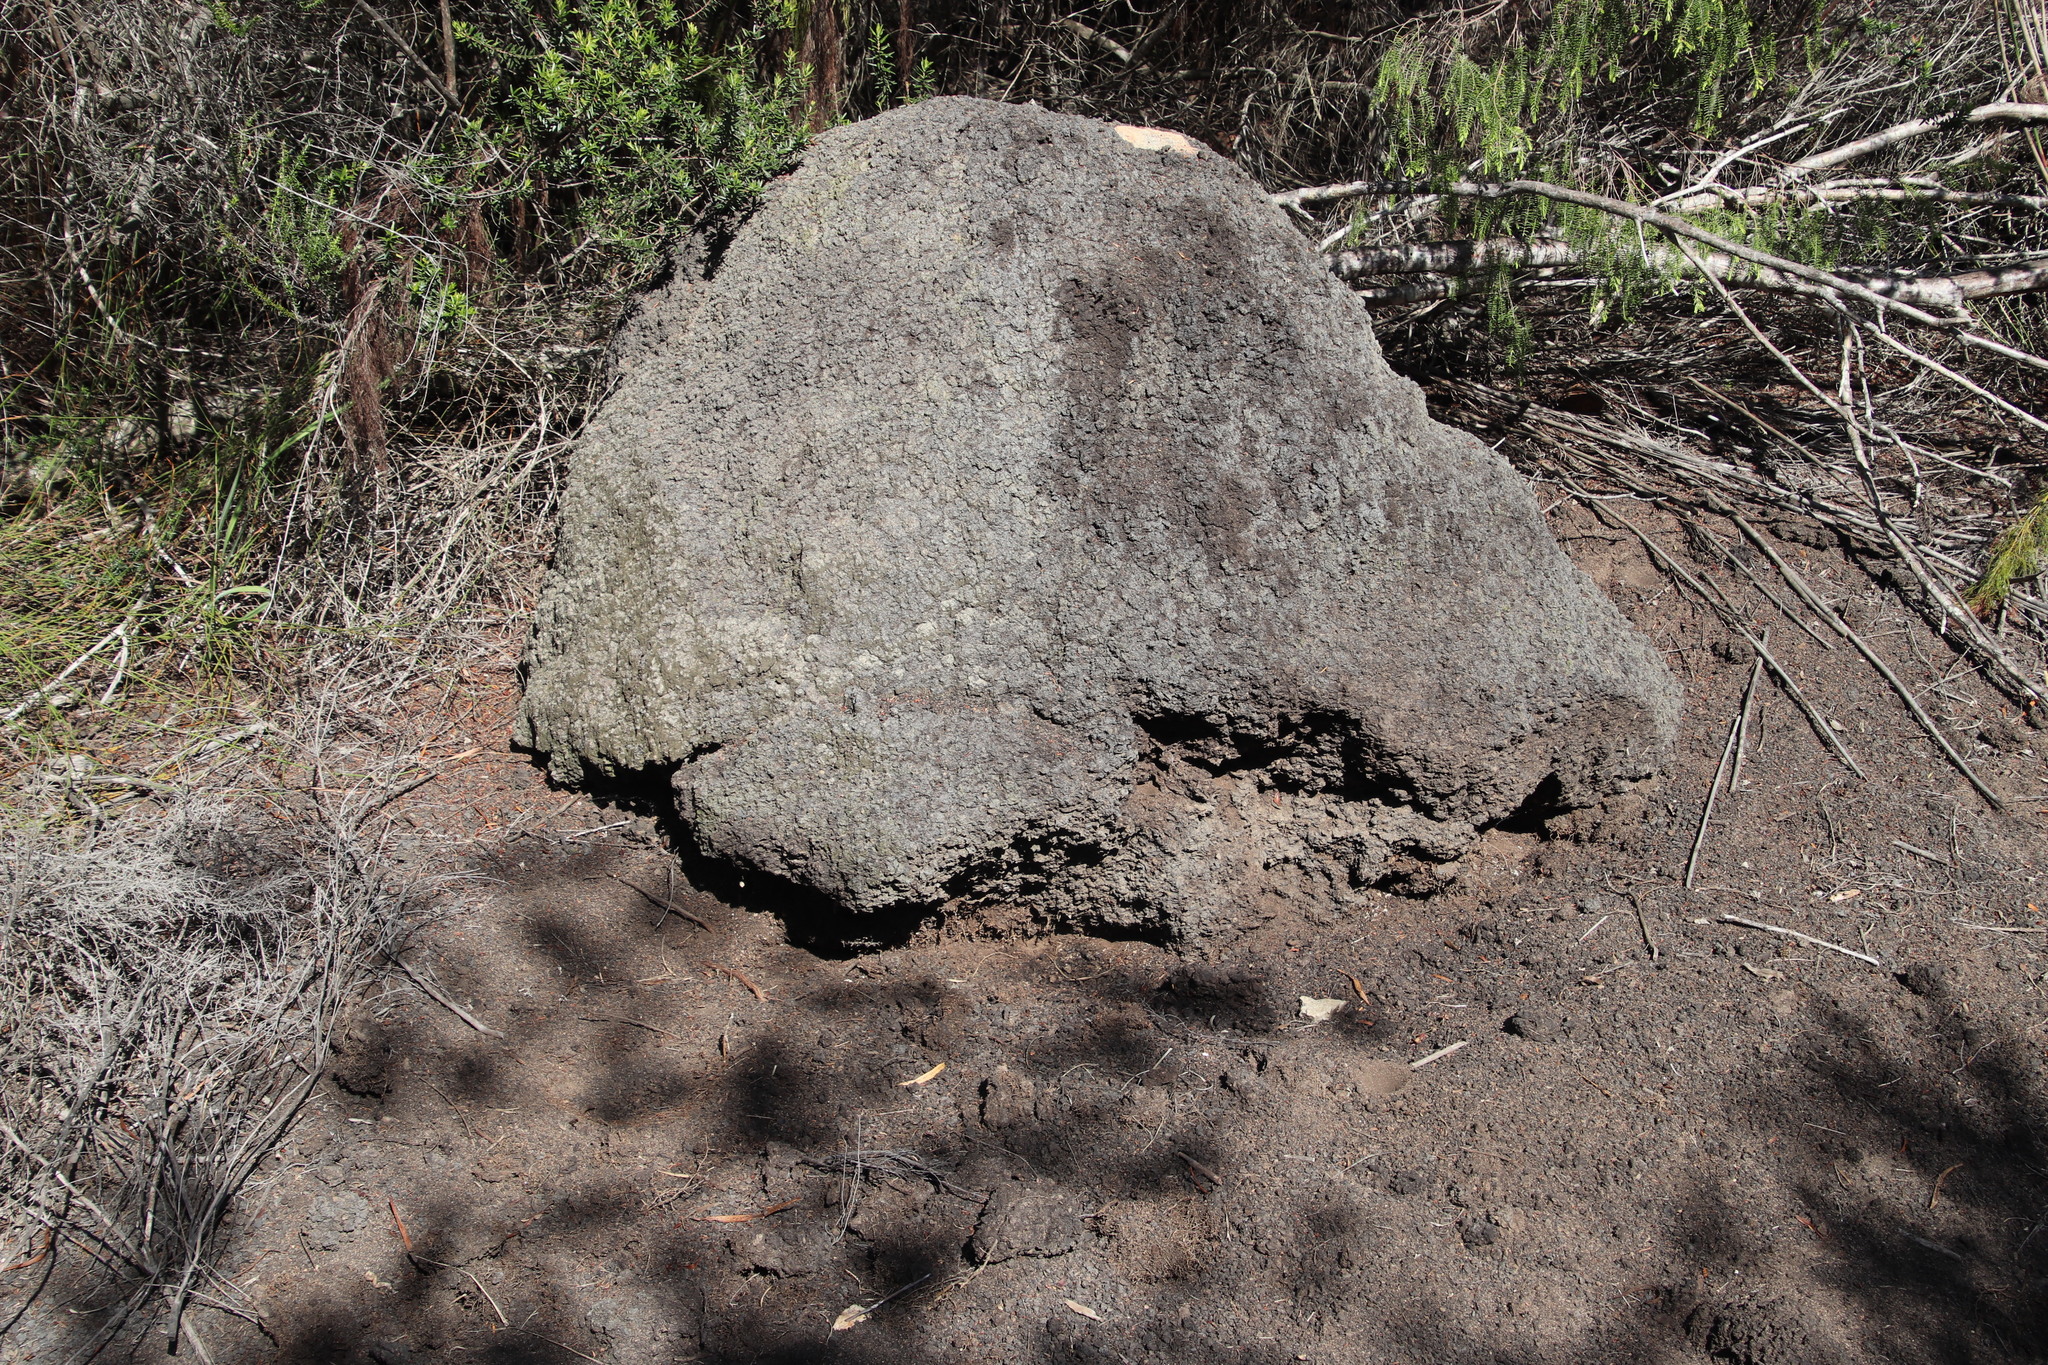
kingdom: Animalia
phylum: Arthropoda
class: Insecta
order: Blattodea
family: Termitidae
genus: Amitermes
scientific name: Amitermes hastatus
